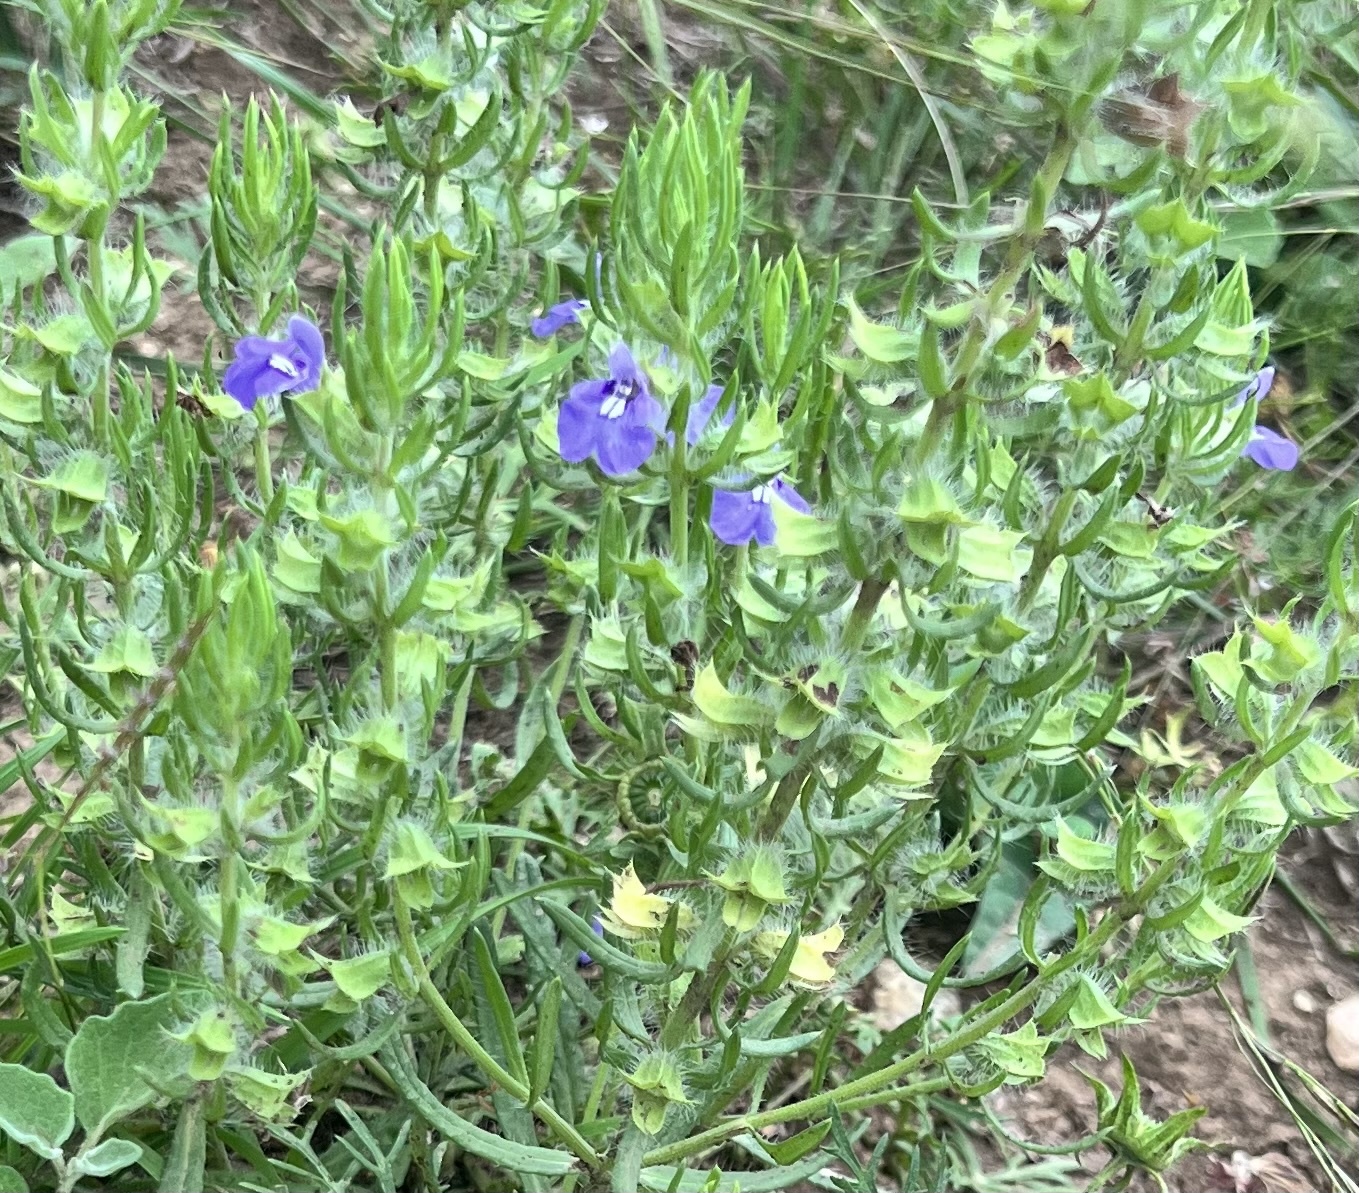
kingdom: Plantae
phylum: Tracheophyta
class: Magnoliopsida
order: Lamiales
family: Lamiaceae
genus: Salvia
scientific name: Salvia texana
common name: Texas sage
